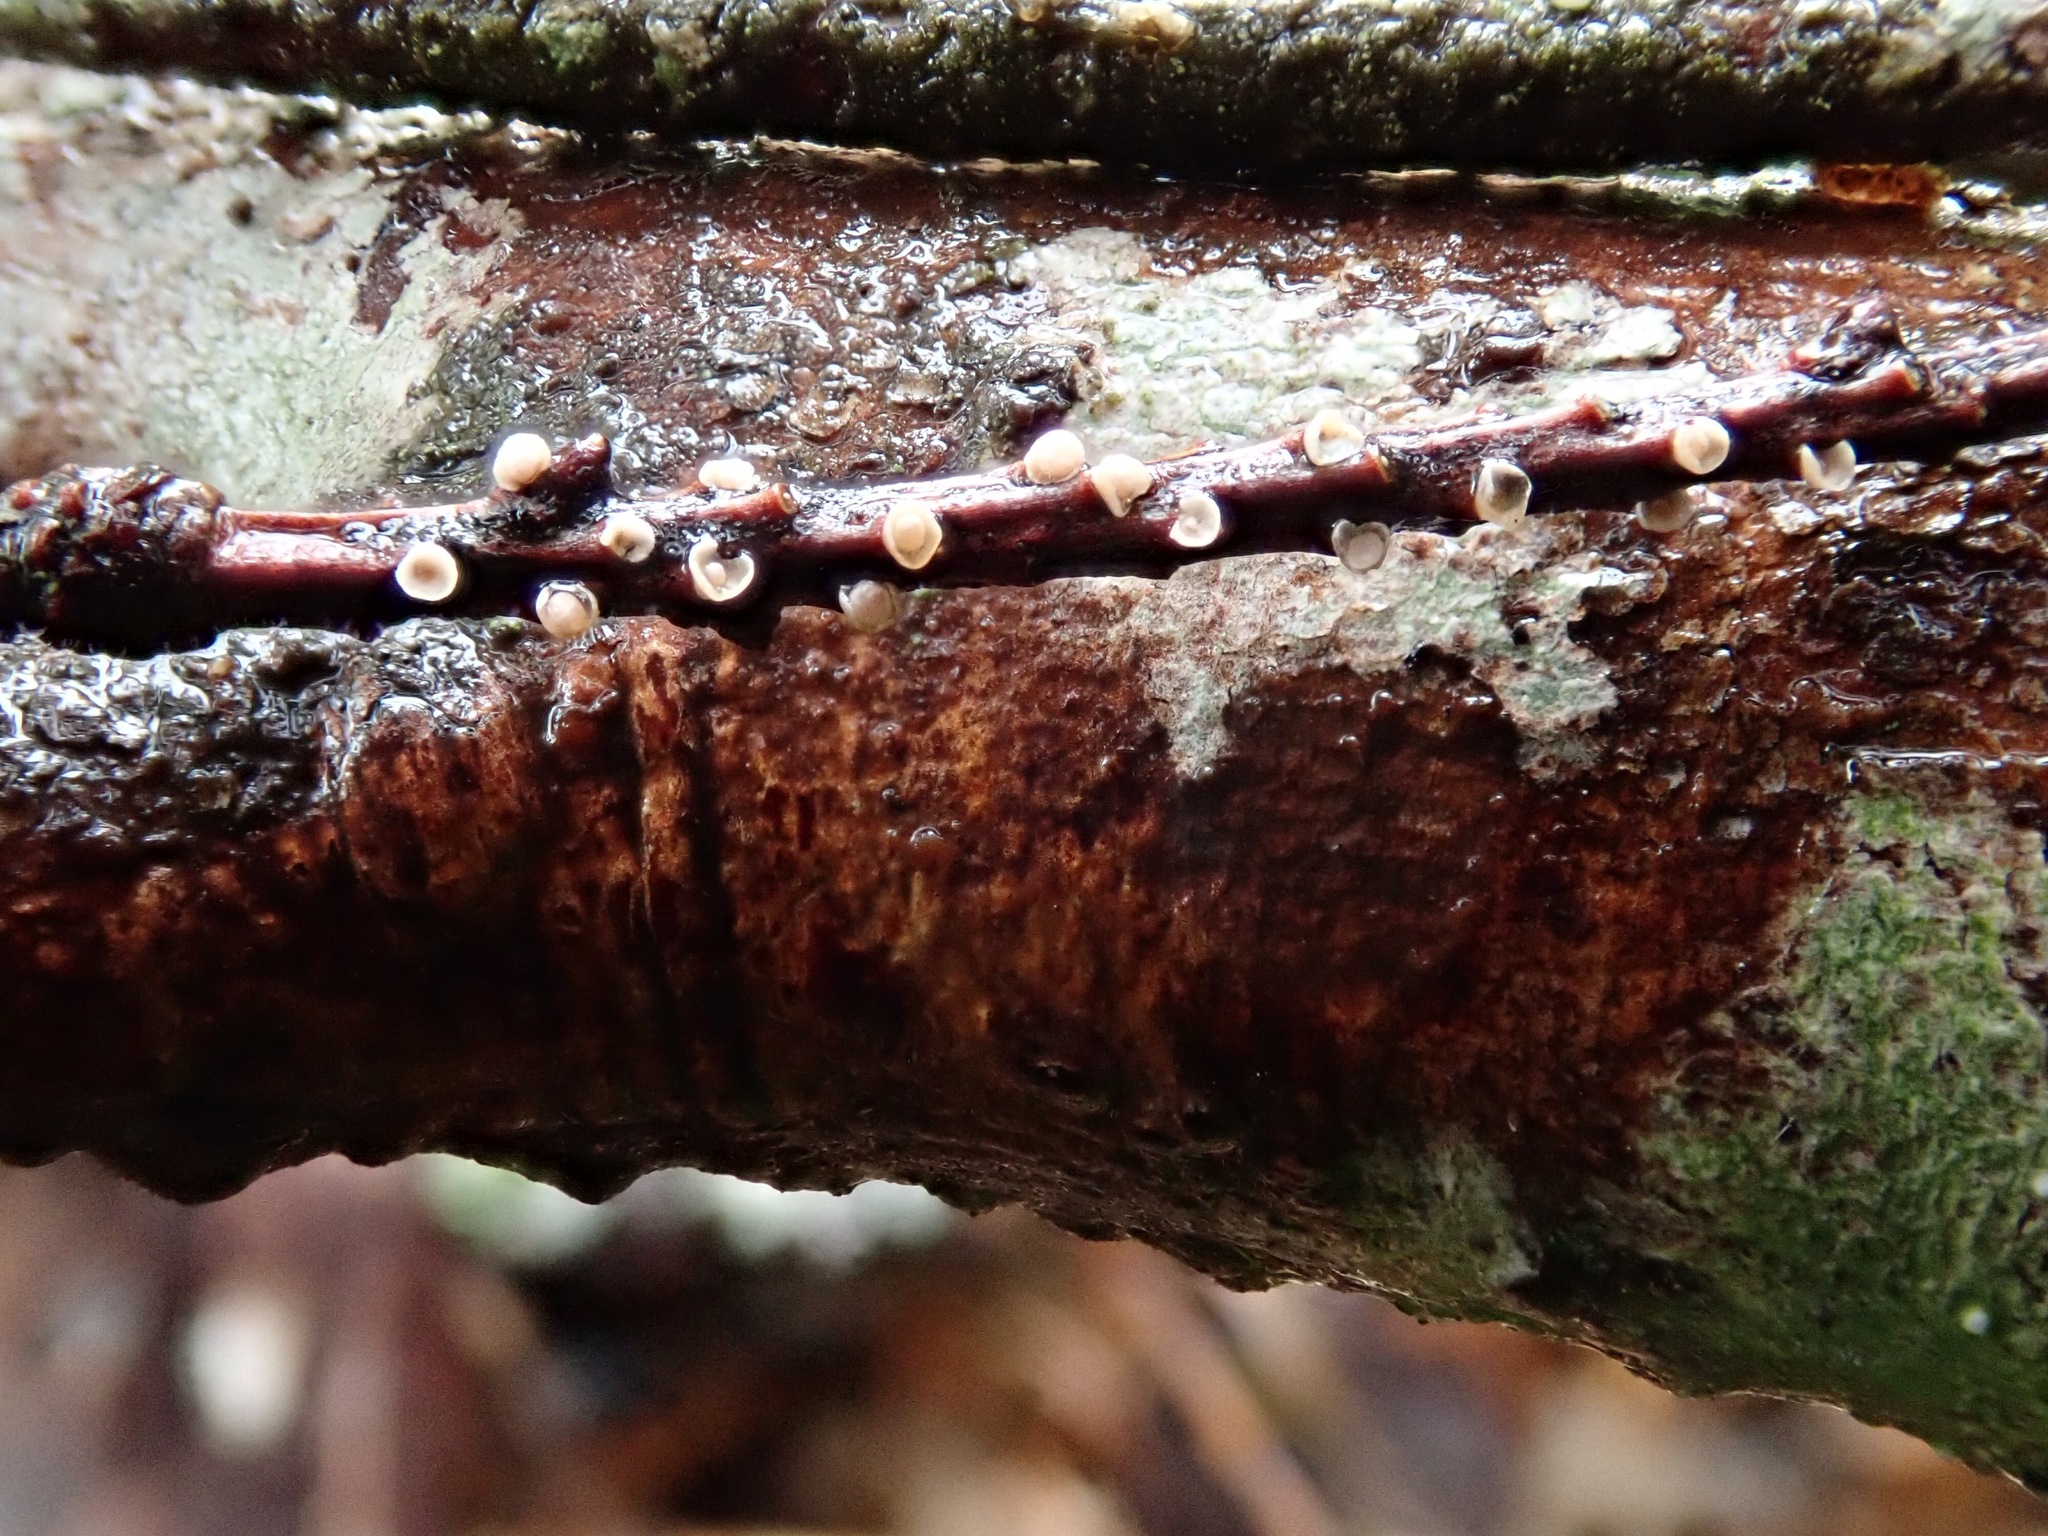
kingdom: Fungi
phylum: Basidiomycota
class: Agaricomycetes
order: Corticiales
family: Corticiaceae
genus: Corticium
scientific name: Corticium minnsiae
